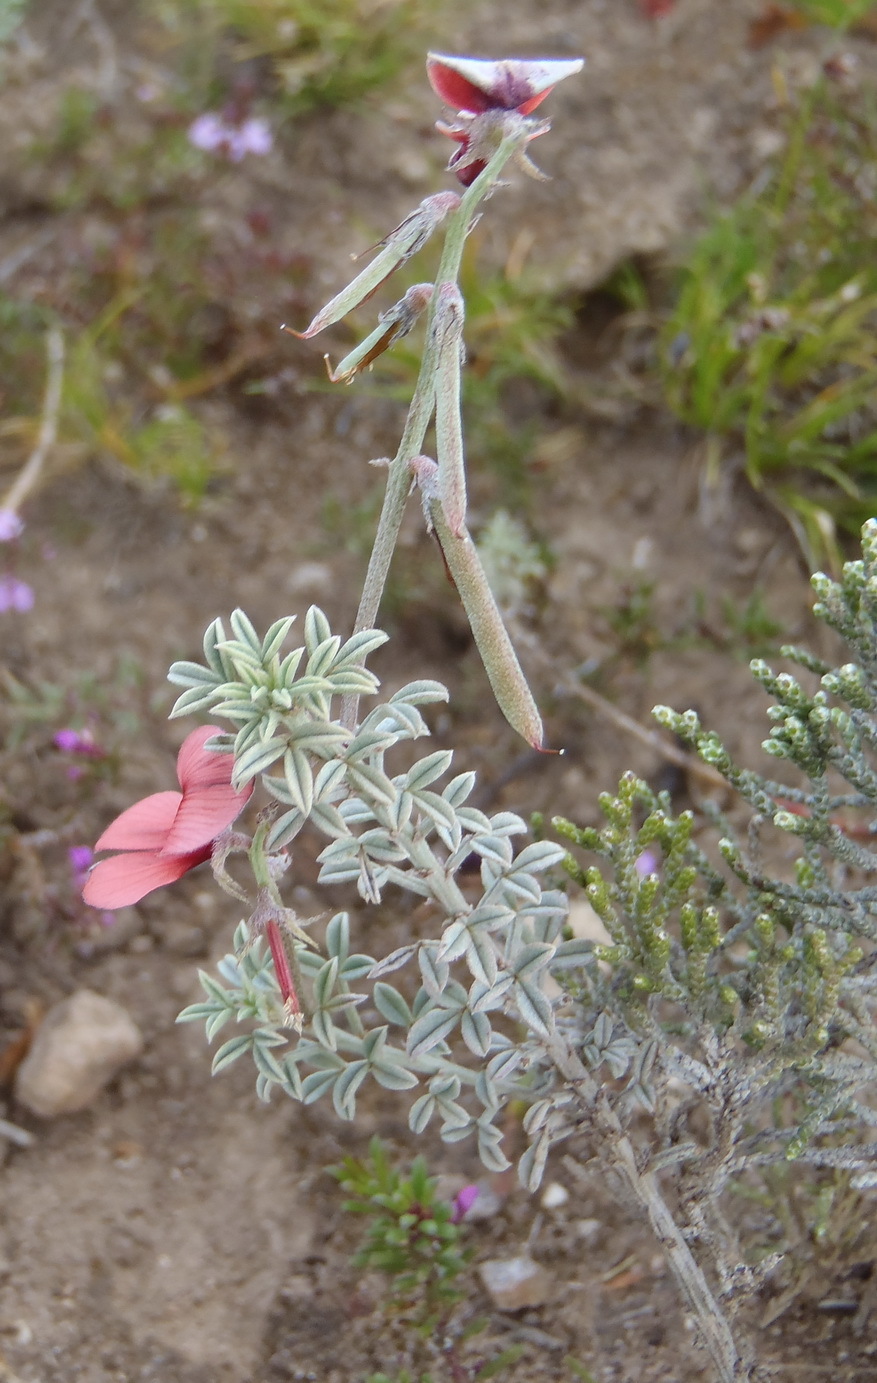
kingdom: Plantae
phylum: Tracheophyta
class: Magnoliopsida
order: Fabales
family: Fabaceae
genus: Indigofera
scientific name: Indigofera
